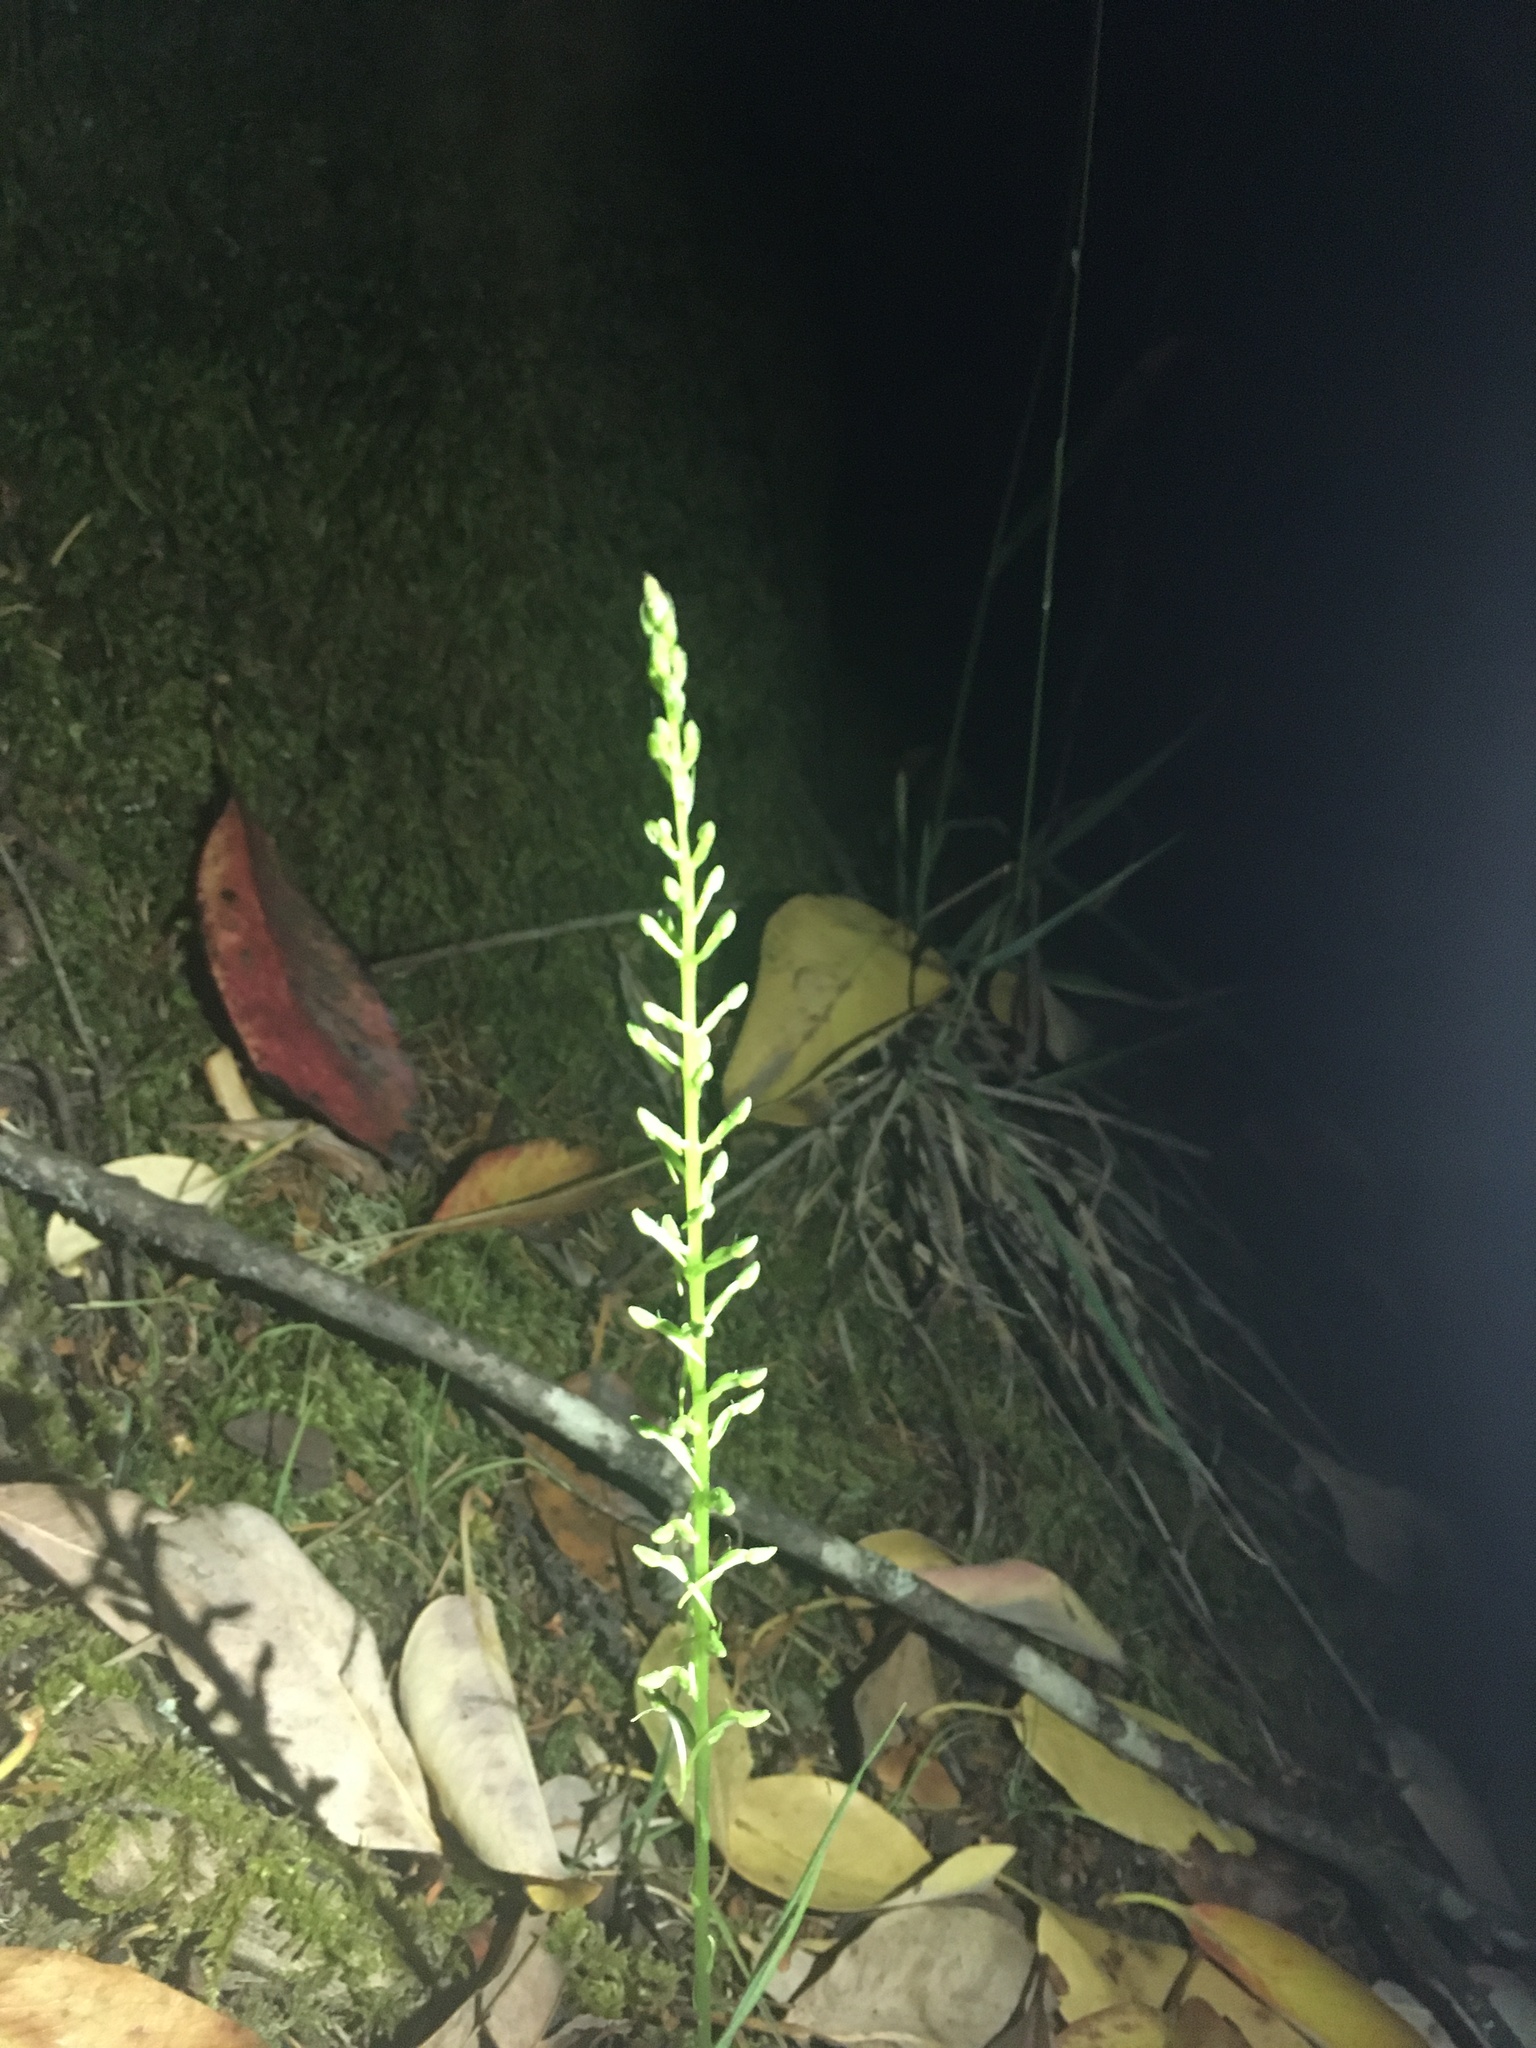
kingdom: Plantae
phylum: Tracheophyta
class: Liliopsida
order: Asparagales
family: Orchidaceae
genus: Platanthera
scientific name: Platanthera elongata
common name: Dense-flowered rein orchid
